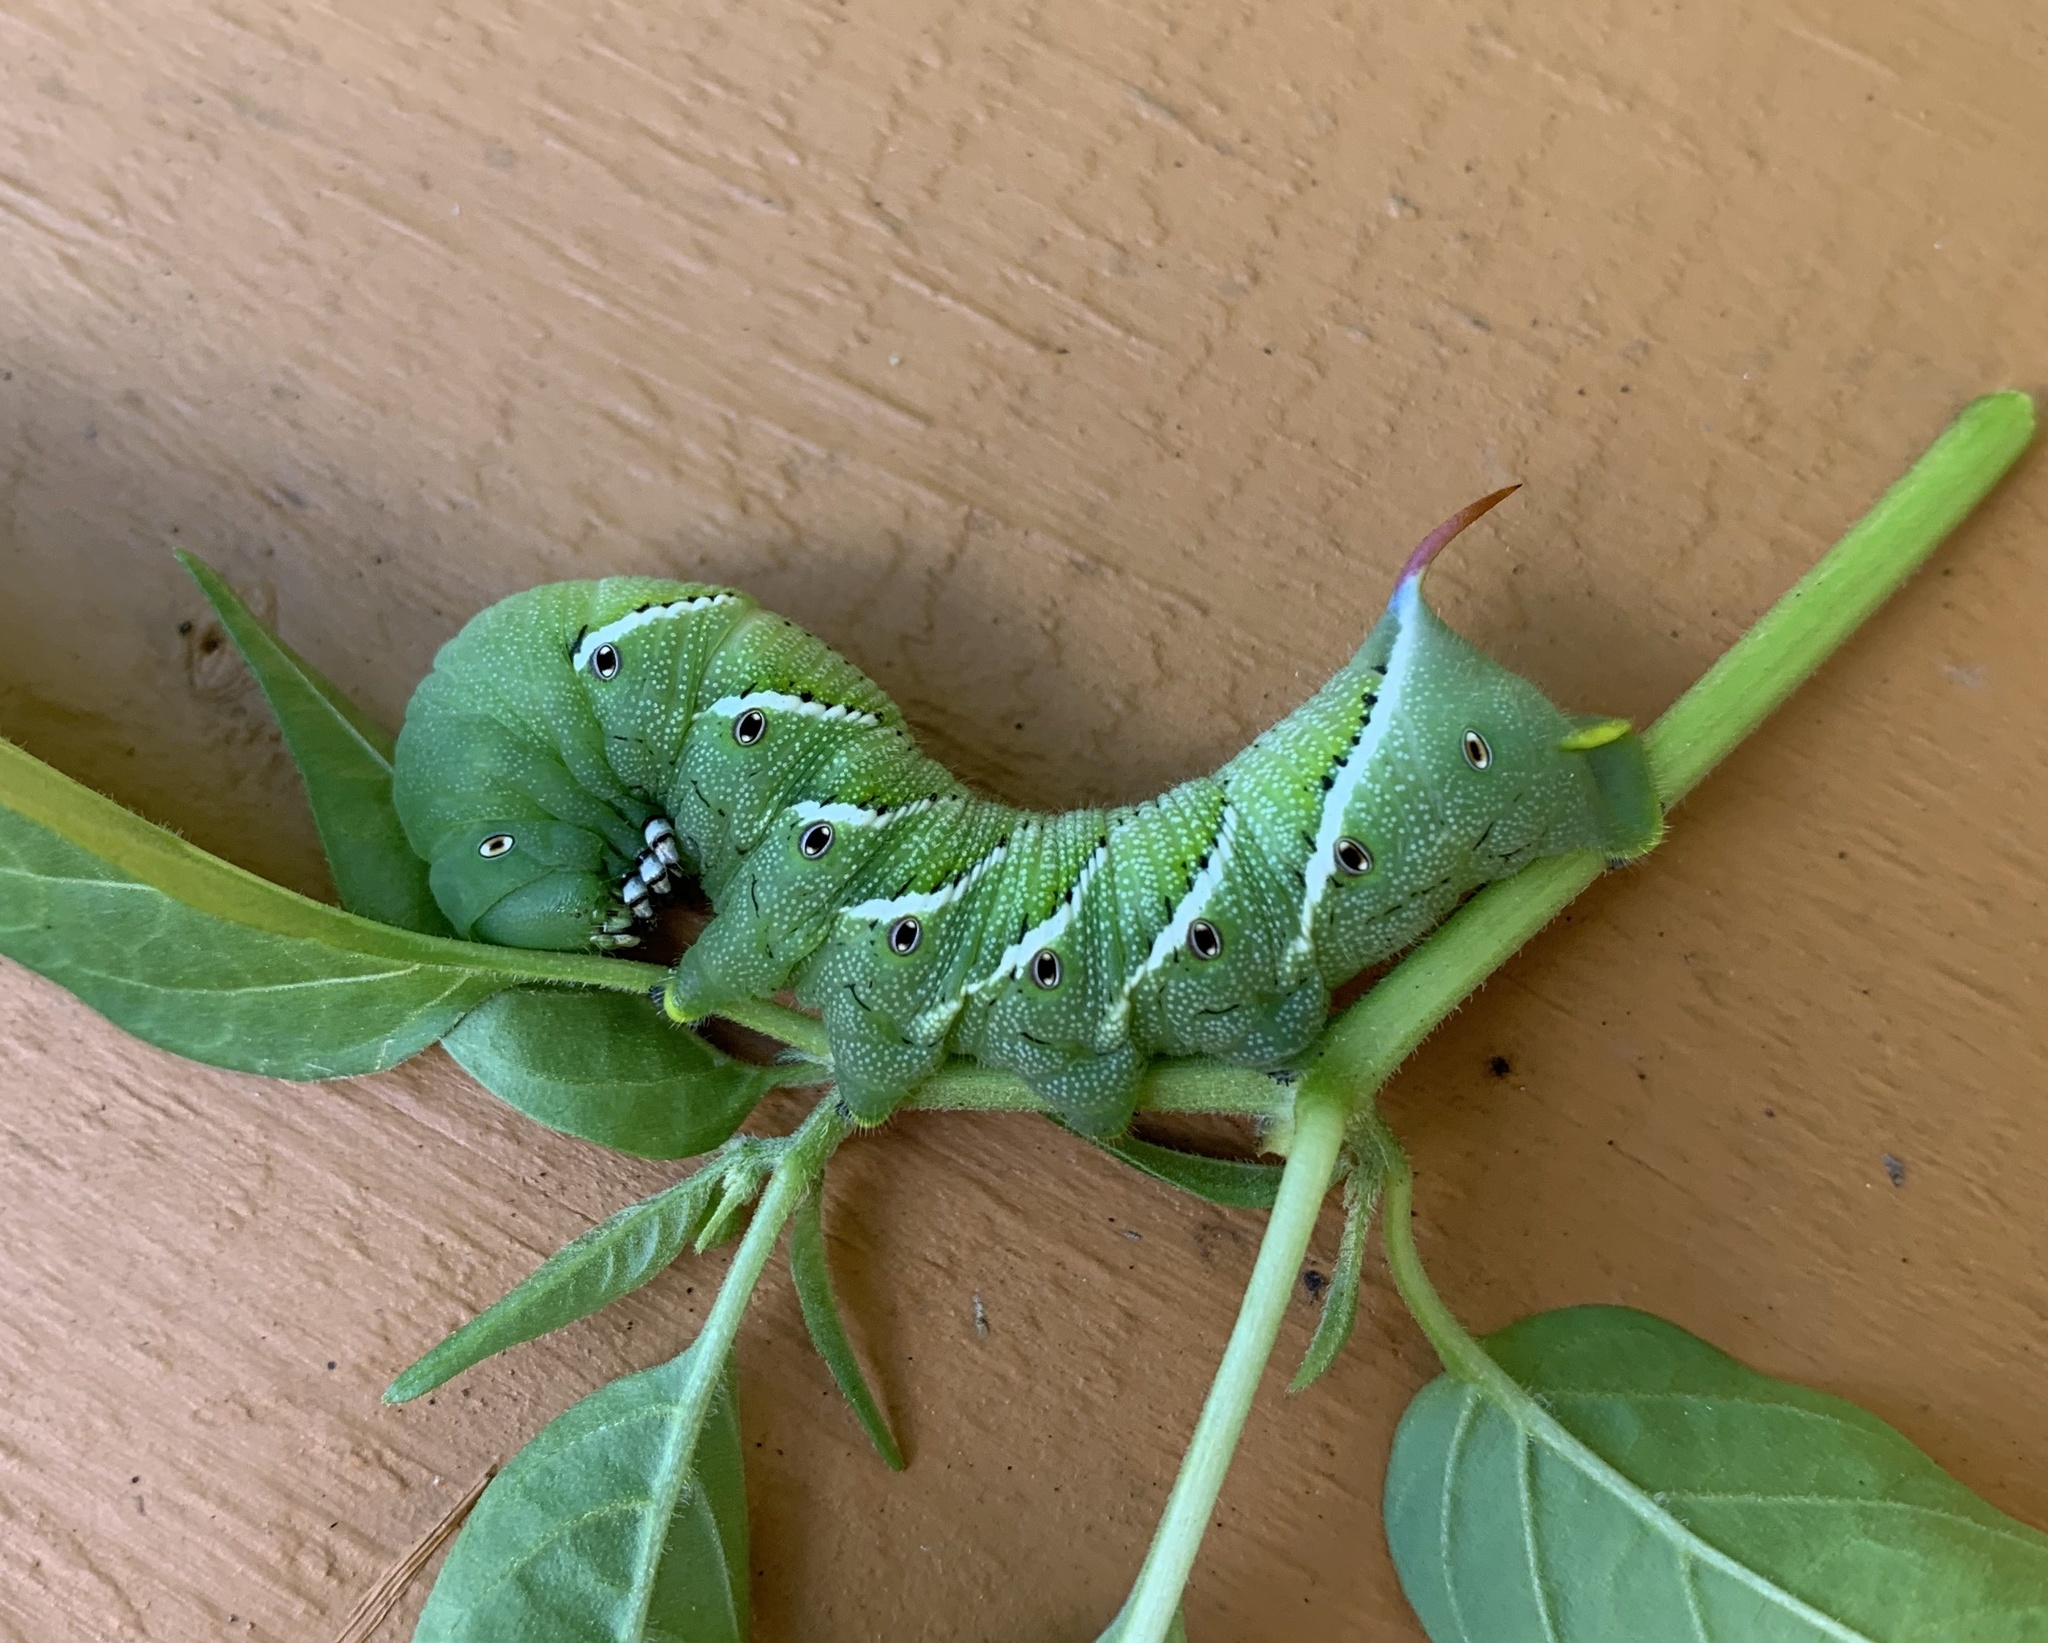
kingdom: Animalia
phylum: Arthropoda
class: Insecta
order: Lepidoptera
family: Sphingidae
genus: Manduca
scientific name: Manduca sexta
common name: Carolina sphinx
